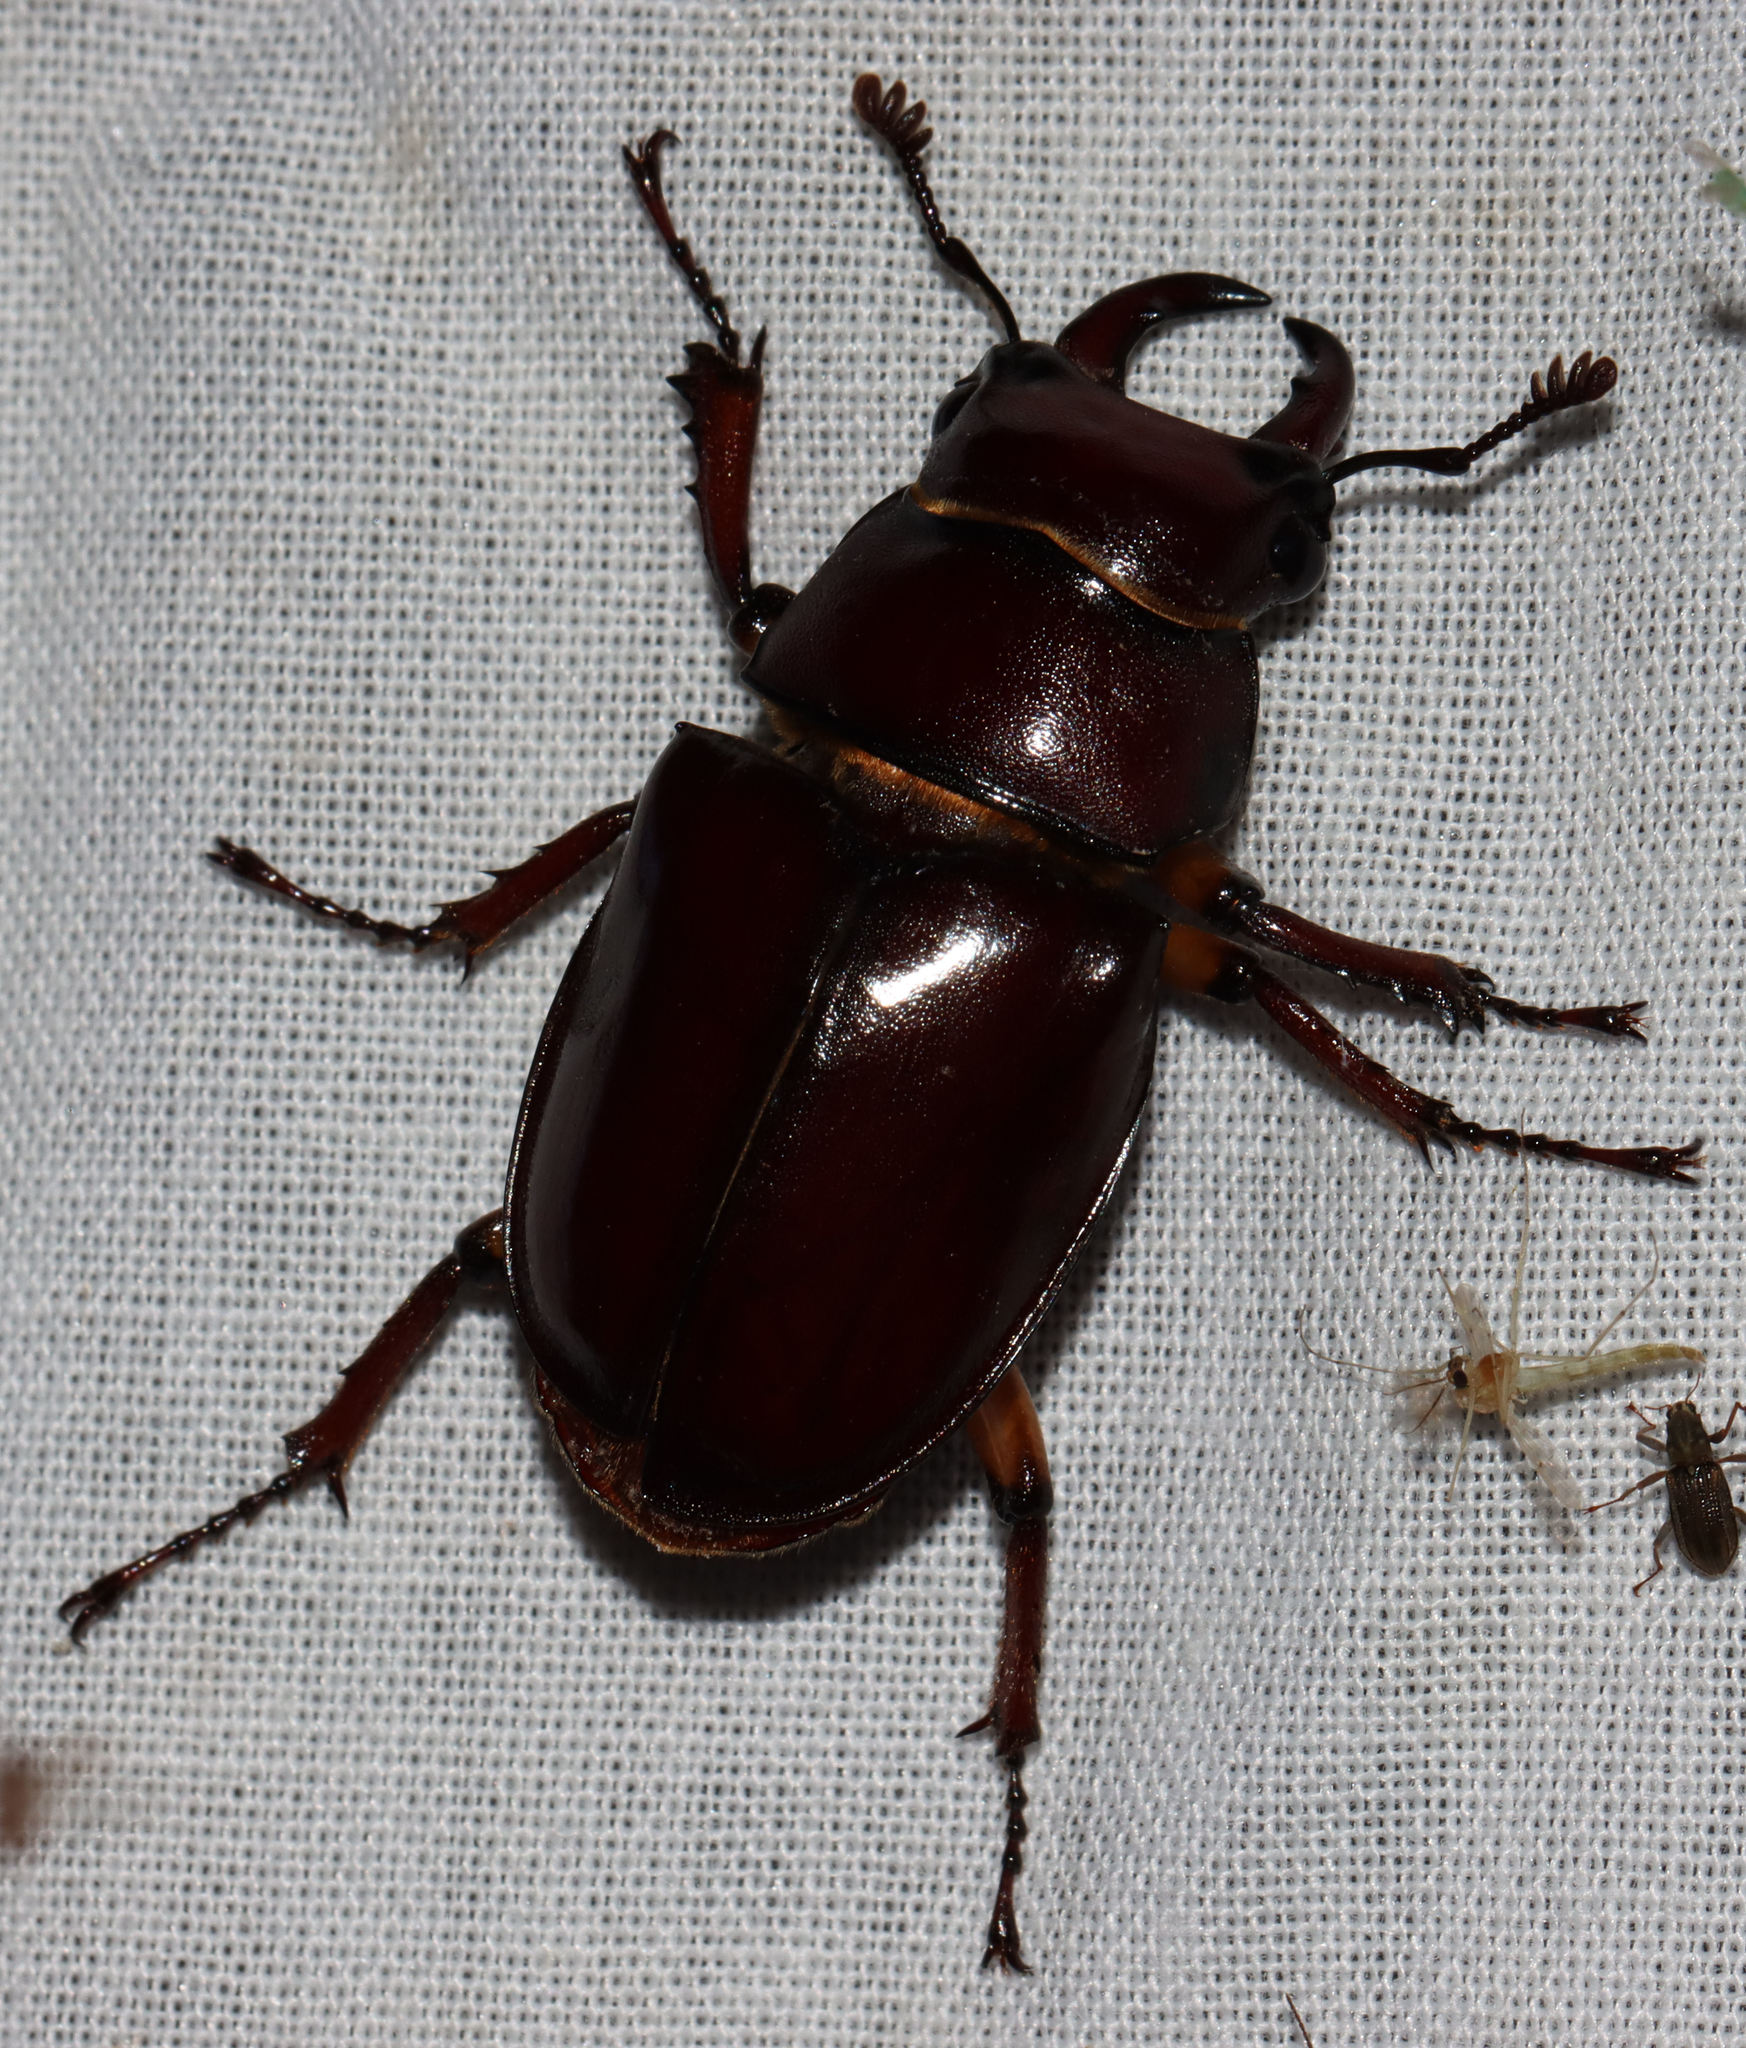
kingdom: Animalia
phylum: Arthropoda
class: Insecta
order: Coleoptera
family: Lucanidae
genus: Lucanus
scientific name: Lucanus capreolus
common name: Stag beetle
